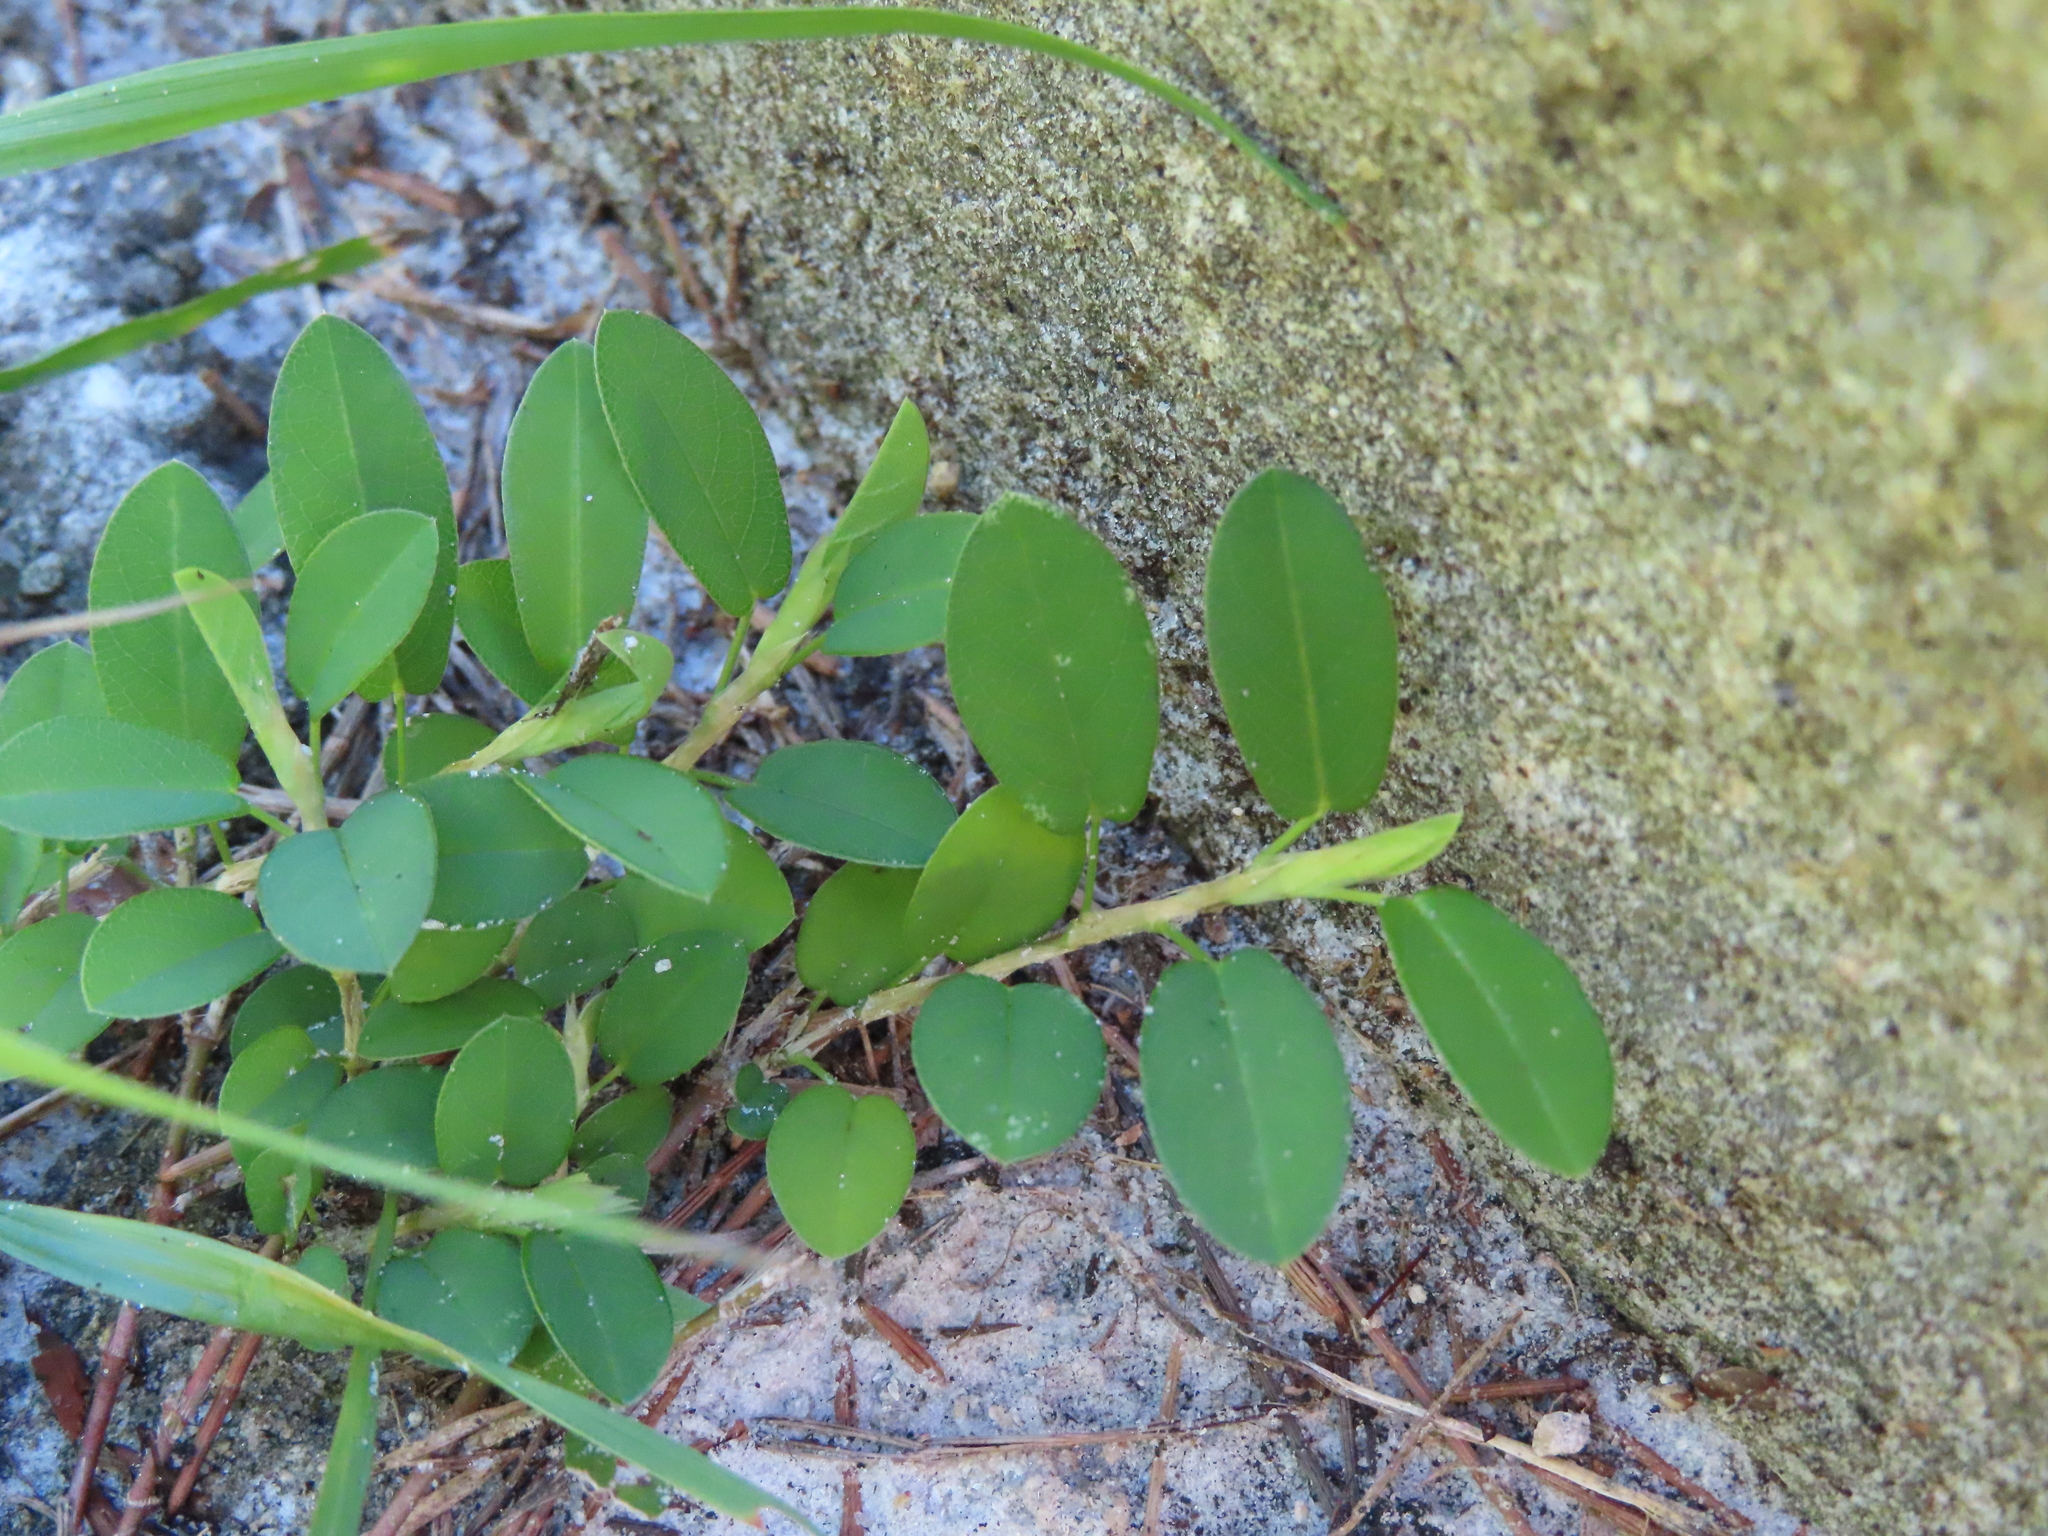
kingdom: Plantae
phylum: Tracheophyta
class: Magnoliopsida
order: Fabales
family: Fabaceae
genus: Alysicarpus
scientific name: Alysicarpus vaginalis
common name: White moneywort
